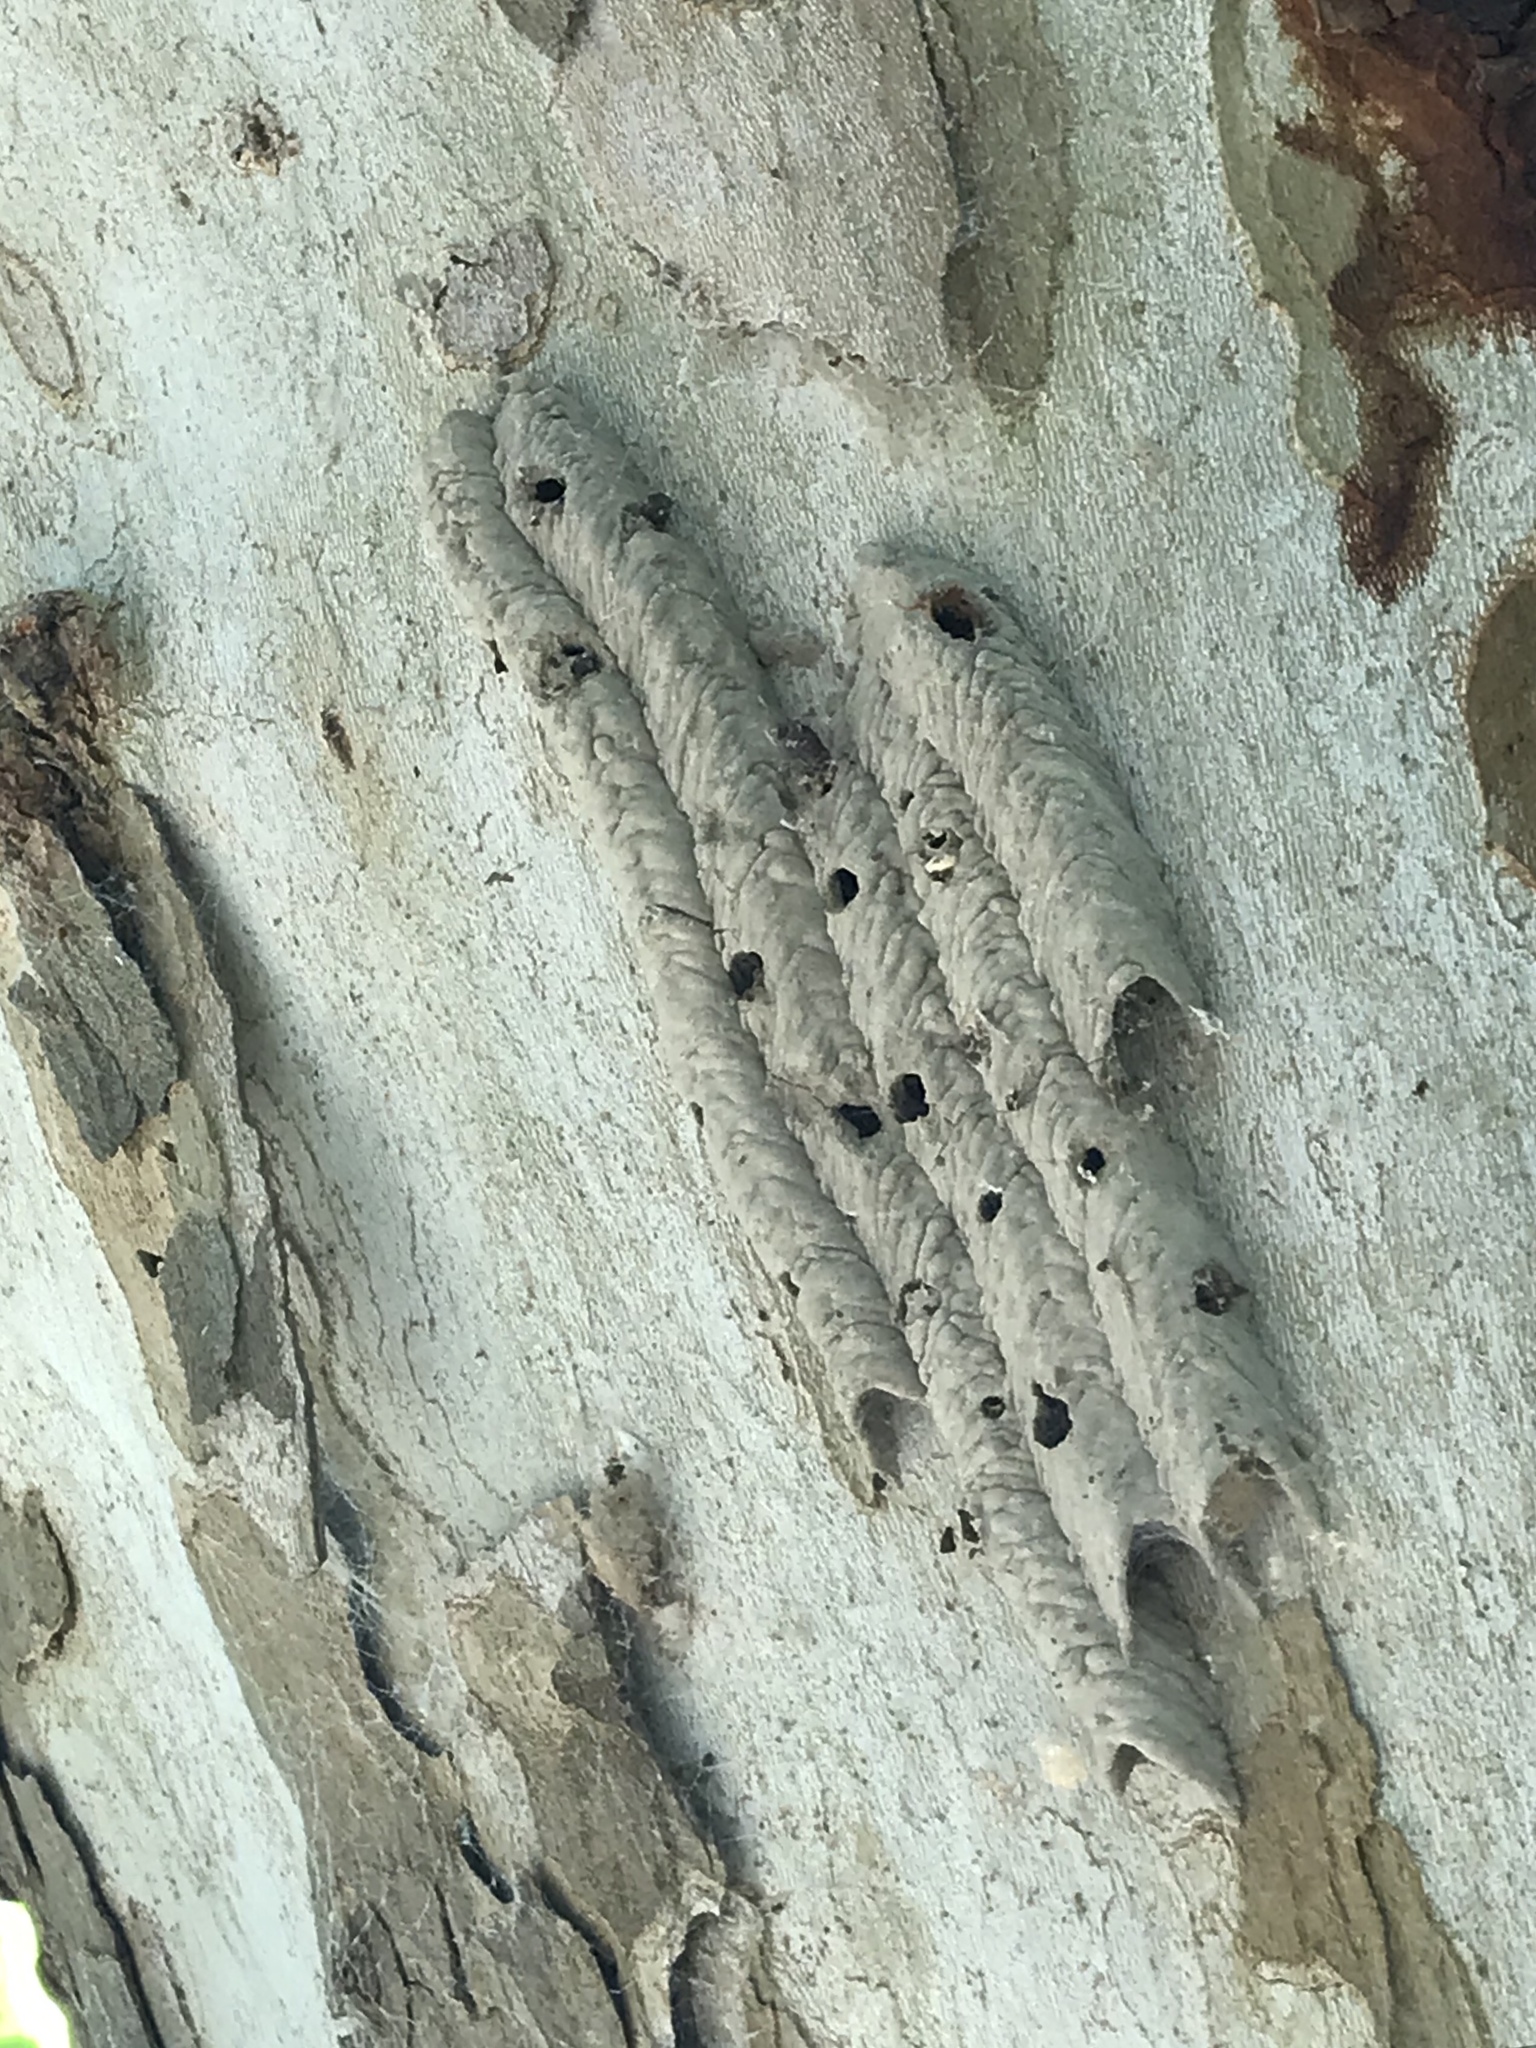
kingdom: Animalia
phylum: Arthropoda
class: Insecta
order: Hymenoptera
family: Crabronidae
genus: Trypoxylon
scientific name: Trypoxylon politum
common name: Organ-pipe mud-dauber wasp
